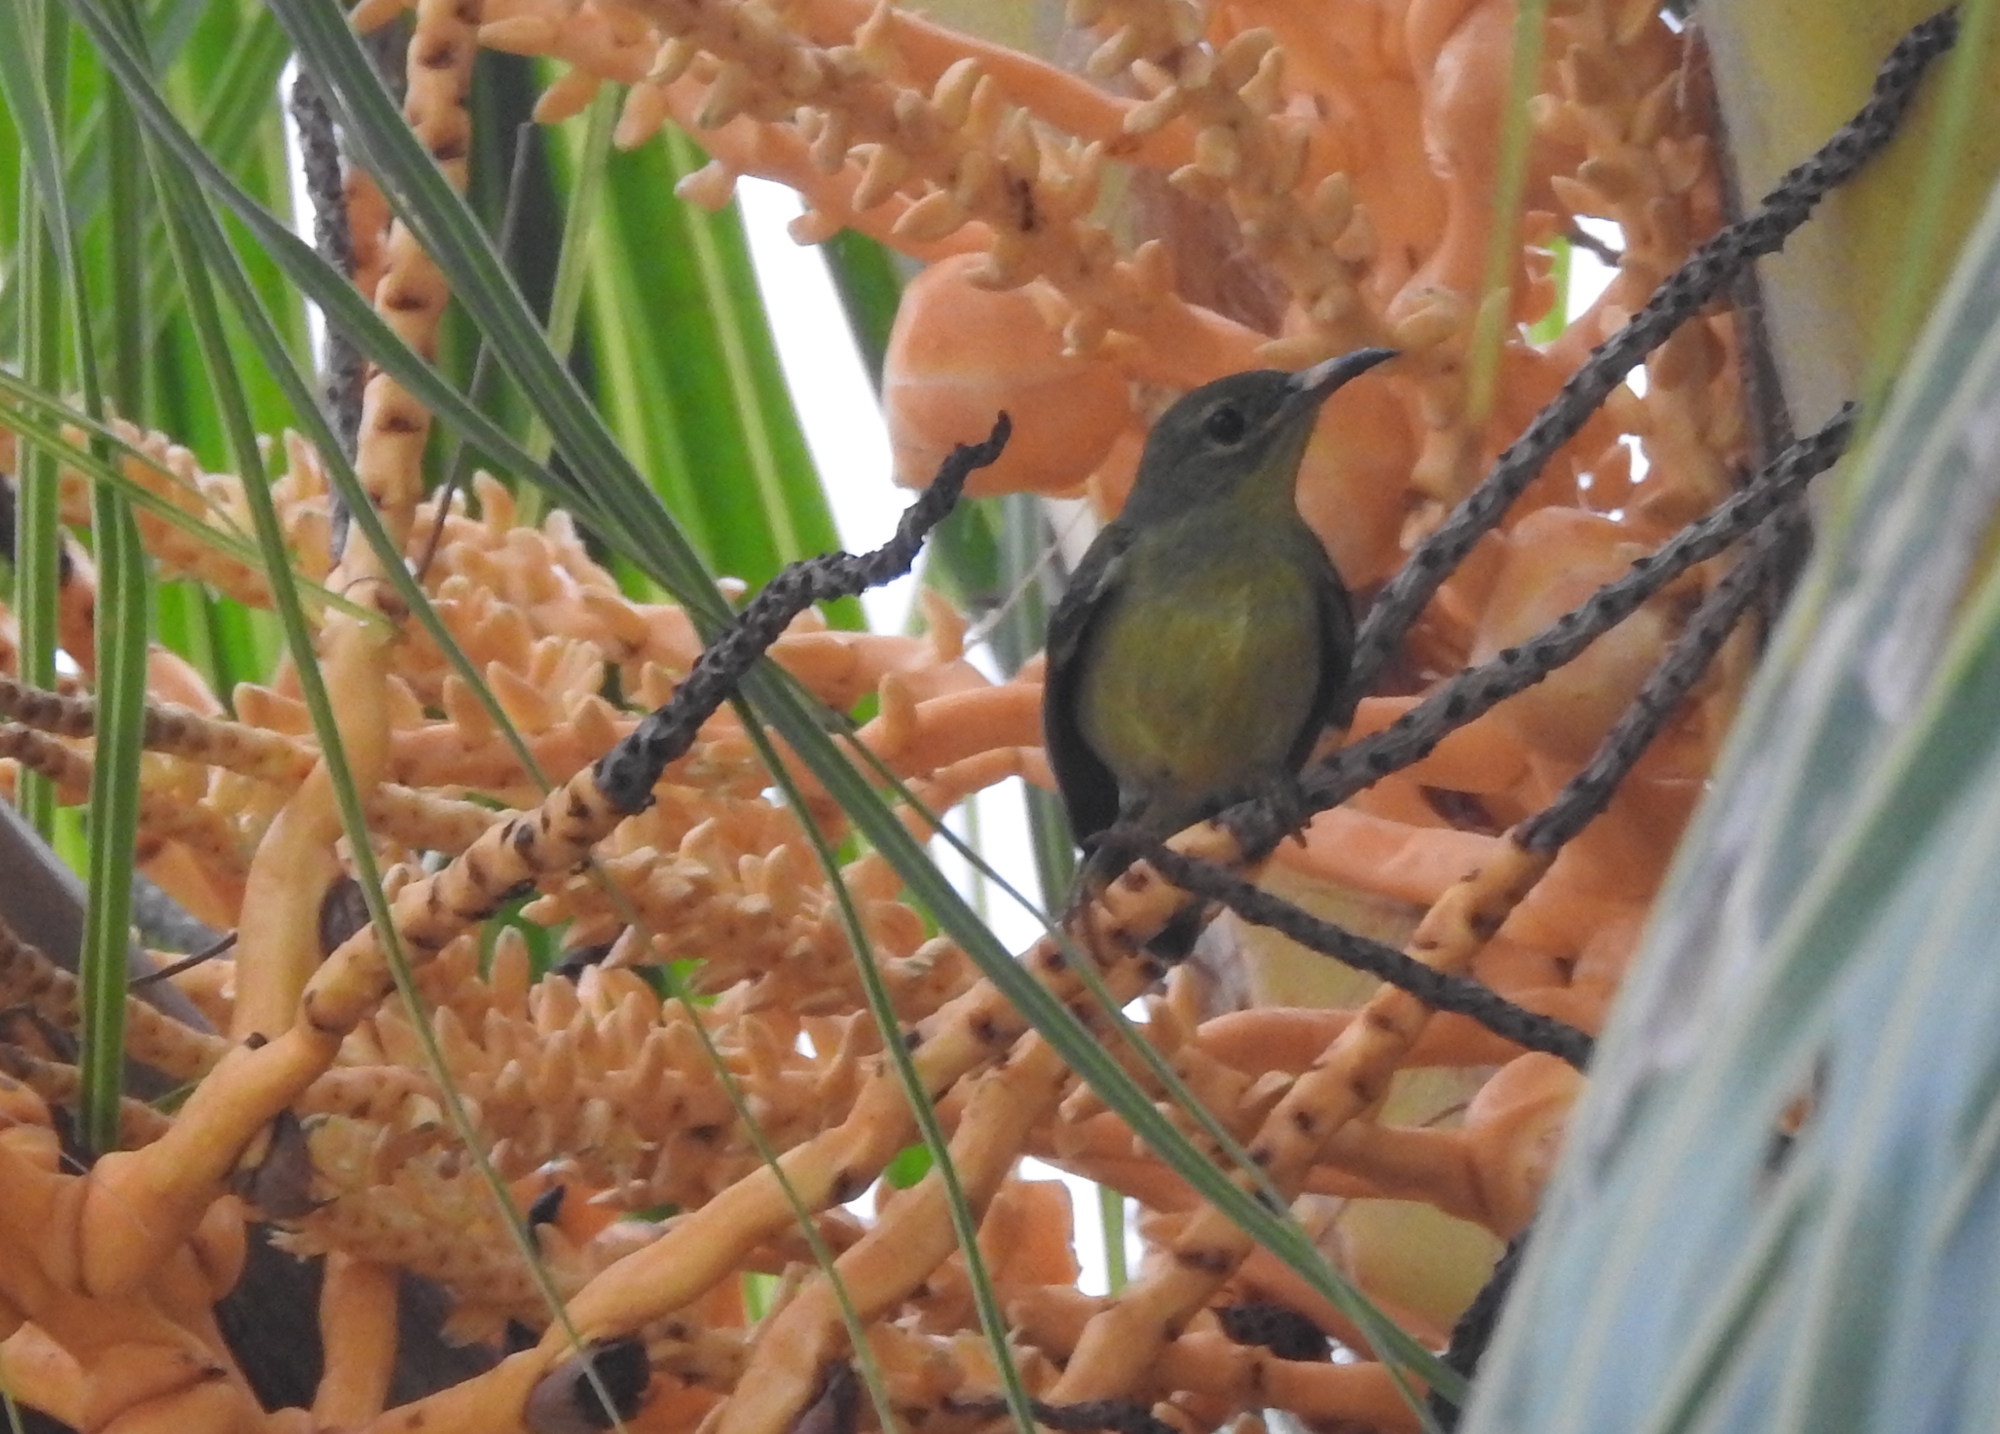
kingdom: Animalia
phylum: Chordata
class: Aves
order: Passeriformes
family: Nectariniidae
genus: Anthreptes
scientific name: Anthreptes malacensis
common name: Brown-throated sunbird
